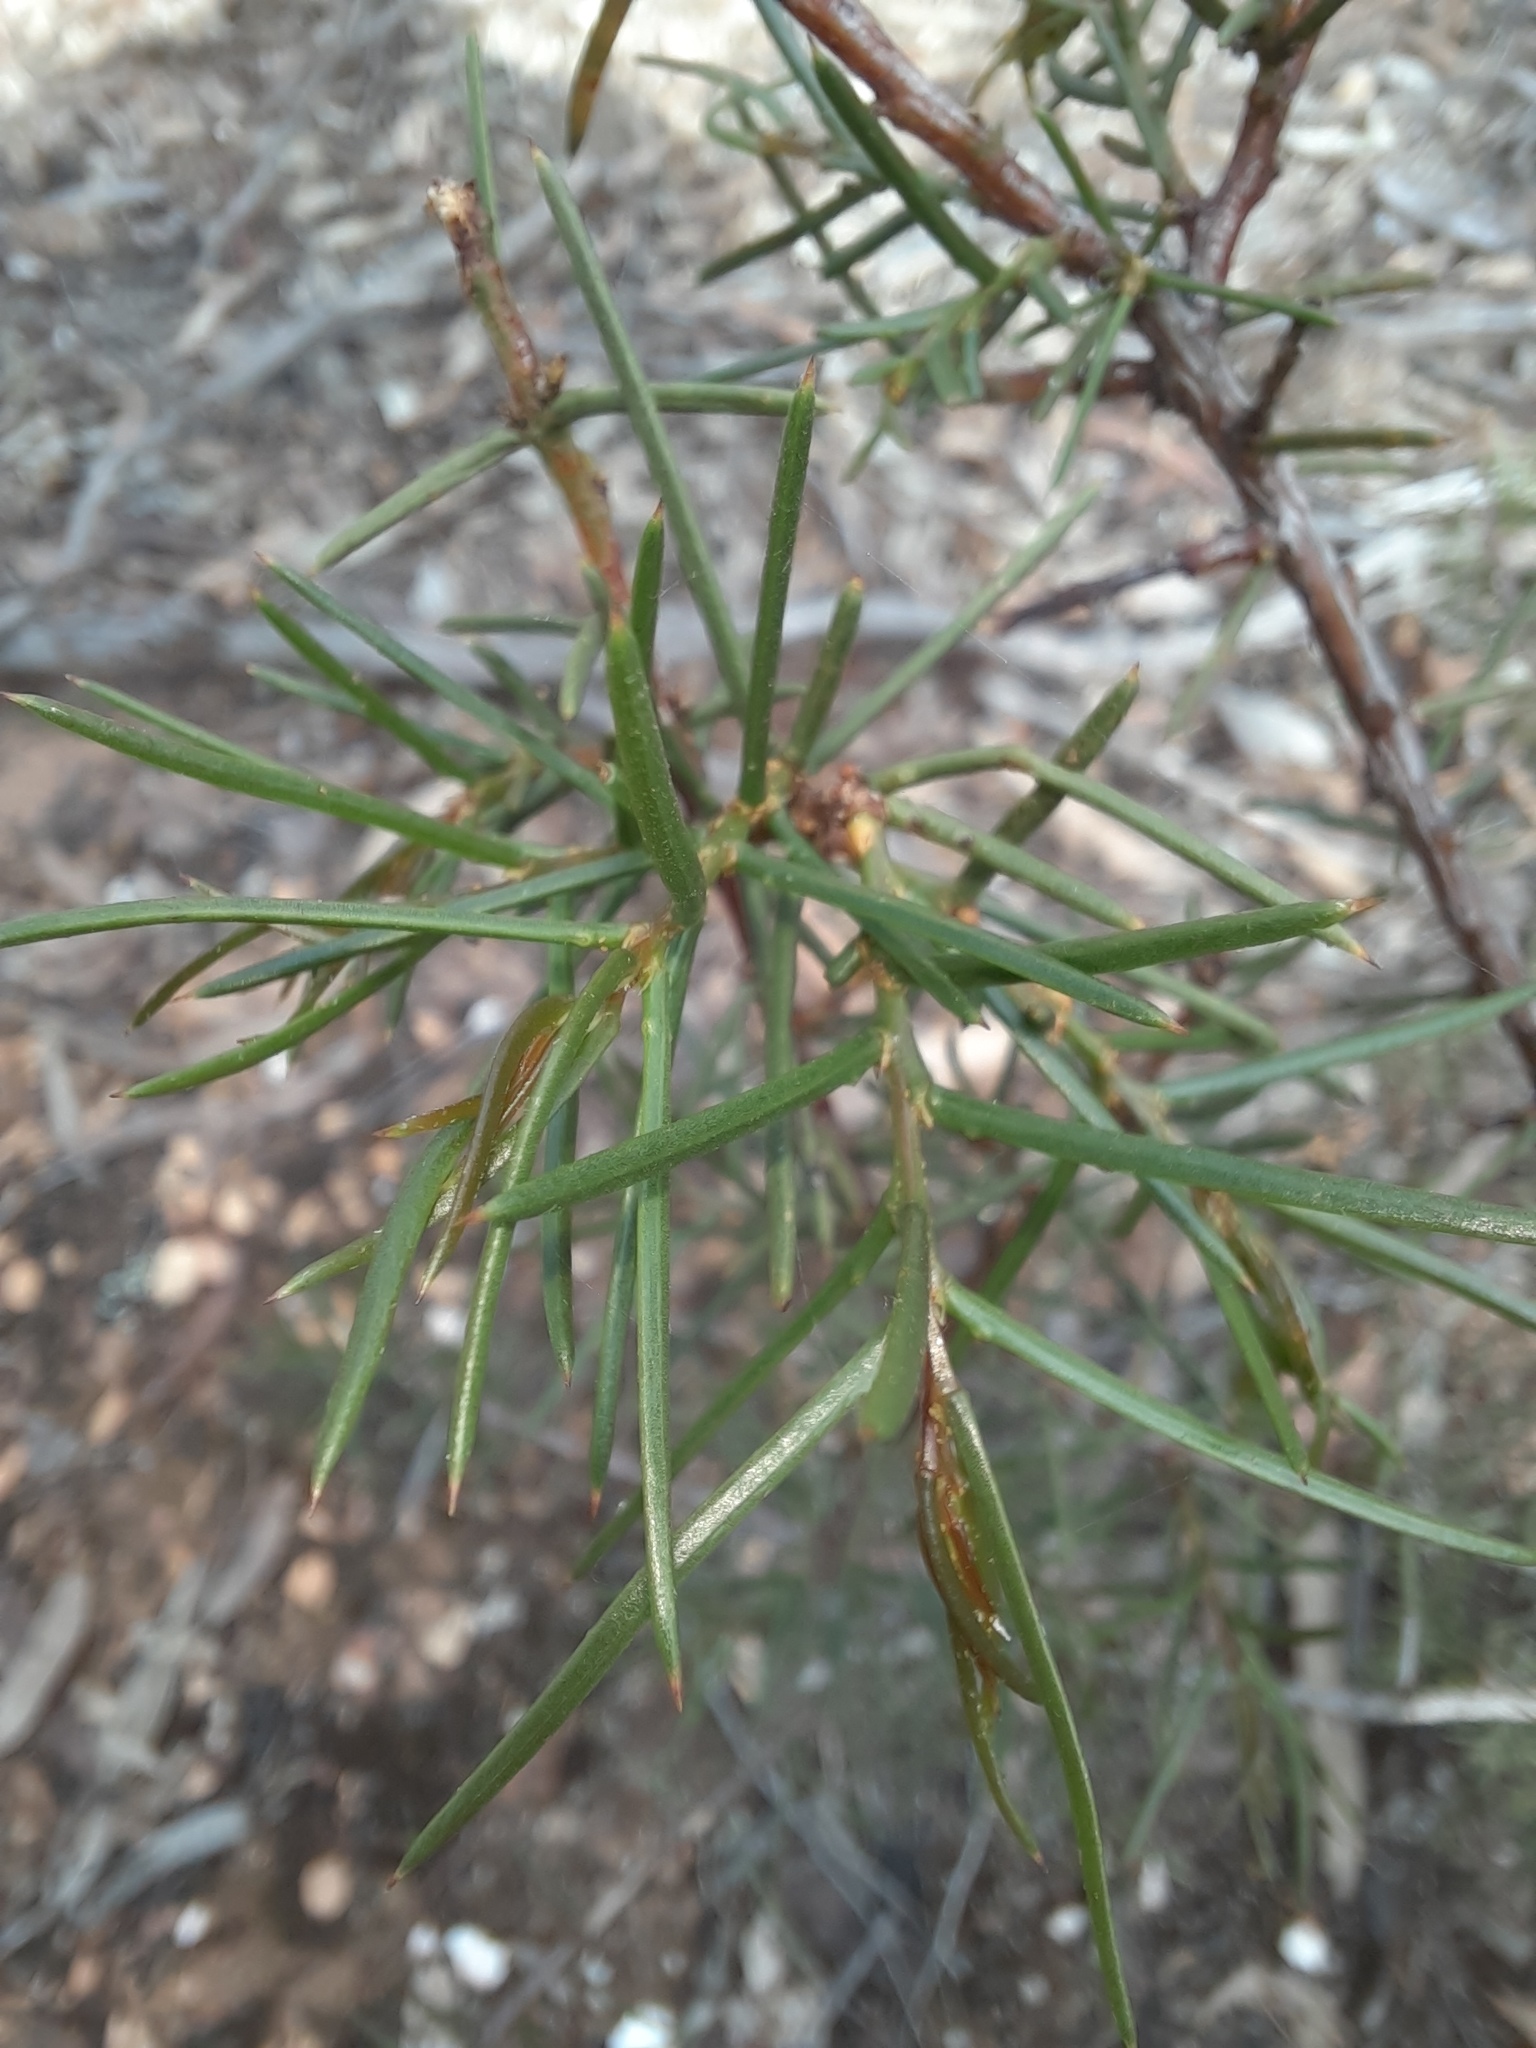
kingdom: Plantae
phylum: Tracheophyta
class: Magnoliopsida
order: Fabales
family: Fabaceae
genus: Acacia
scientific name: Acacia genistifolia
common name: Early wattle
